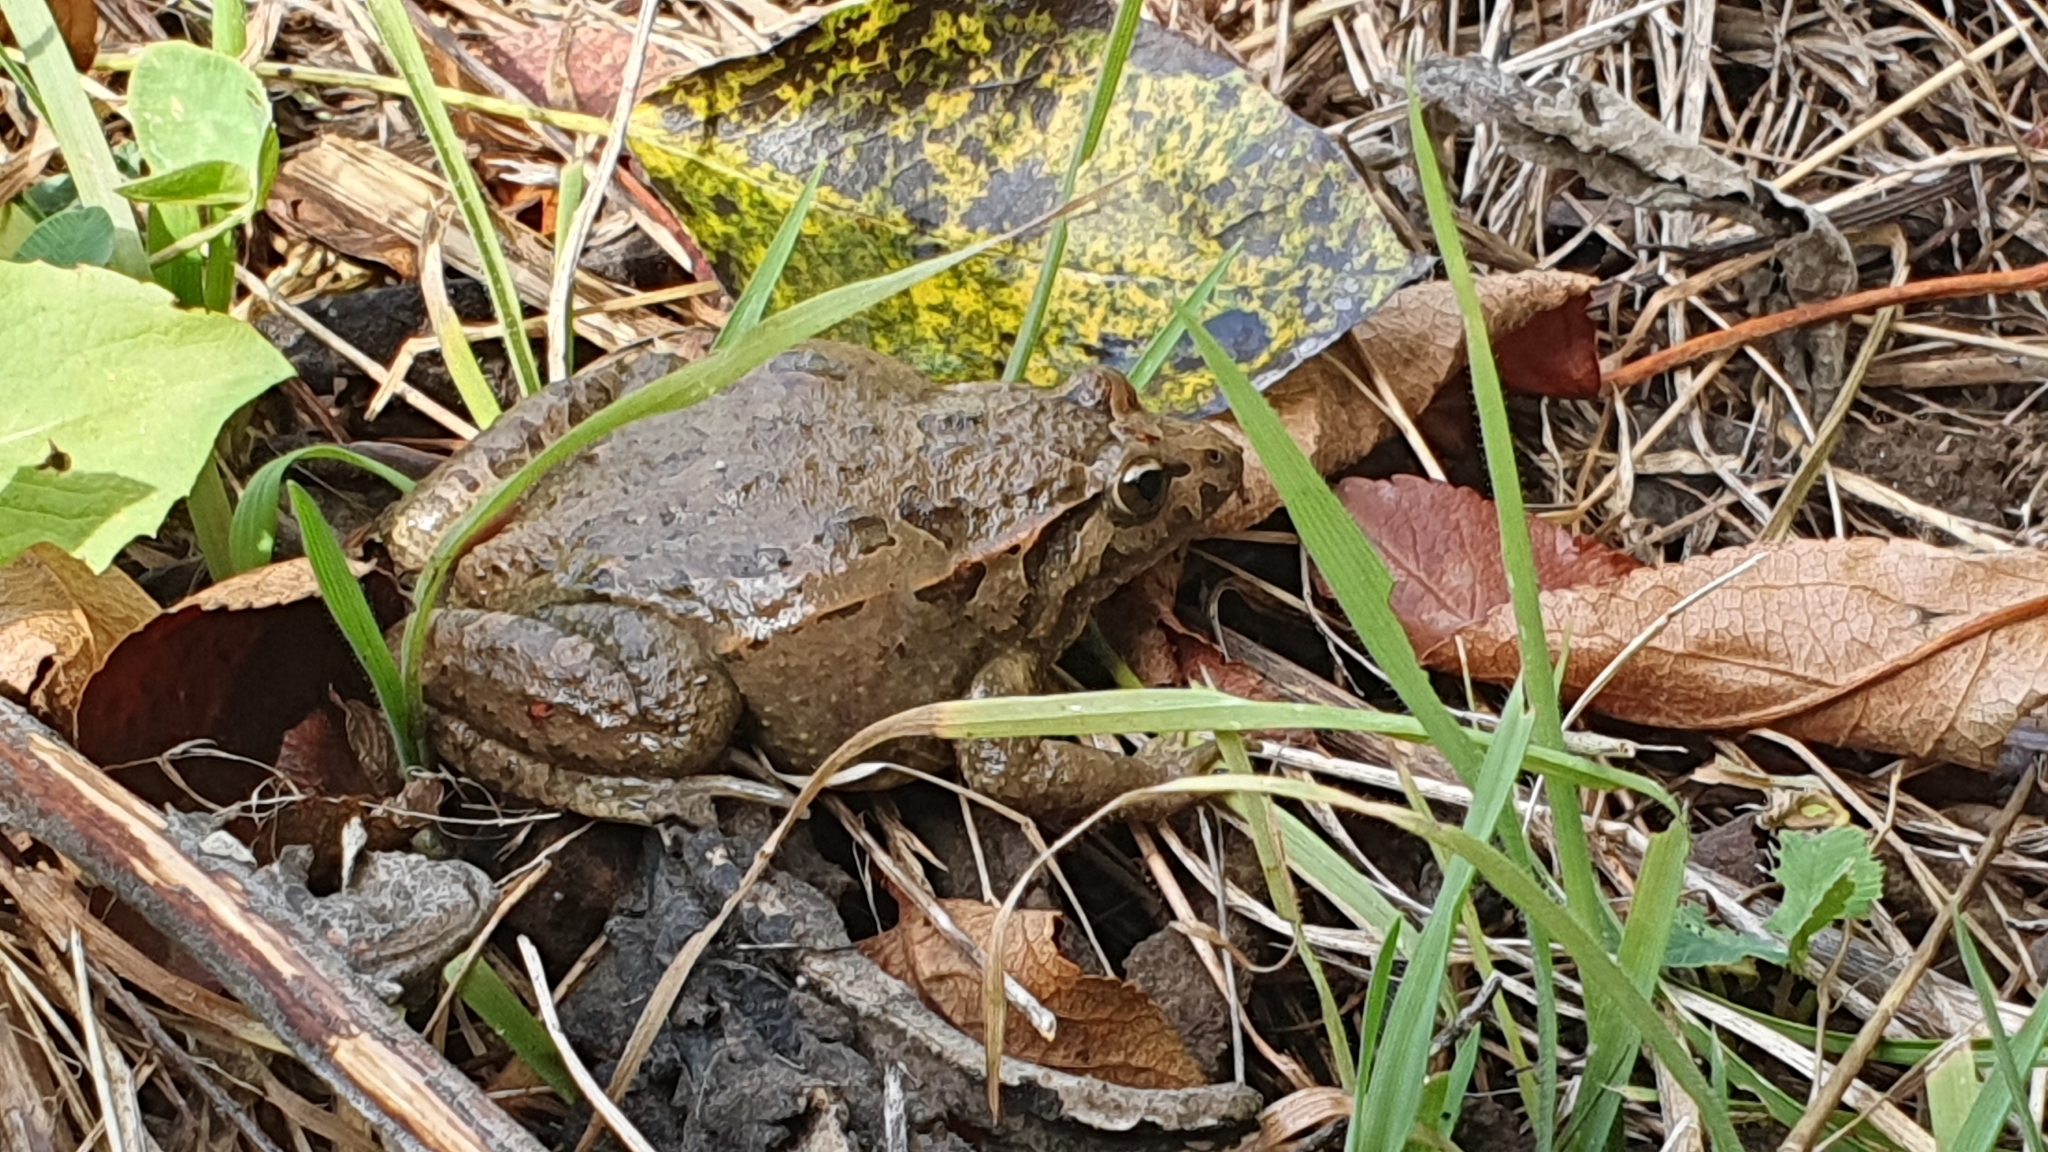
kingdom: Animalia
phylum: Chordata
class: Amphibia
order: Anura
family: Alytidae
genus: Discoglossus
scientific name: Discoglossus galganoi
